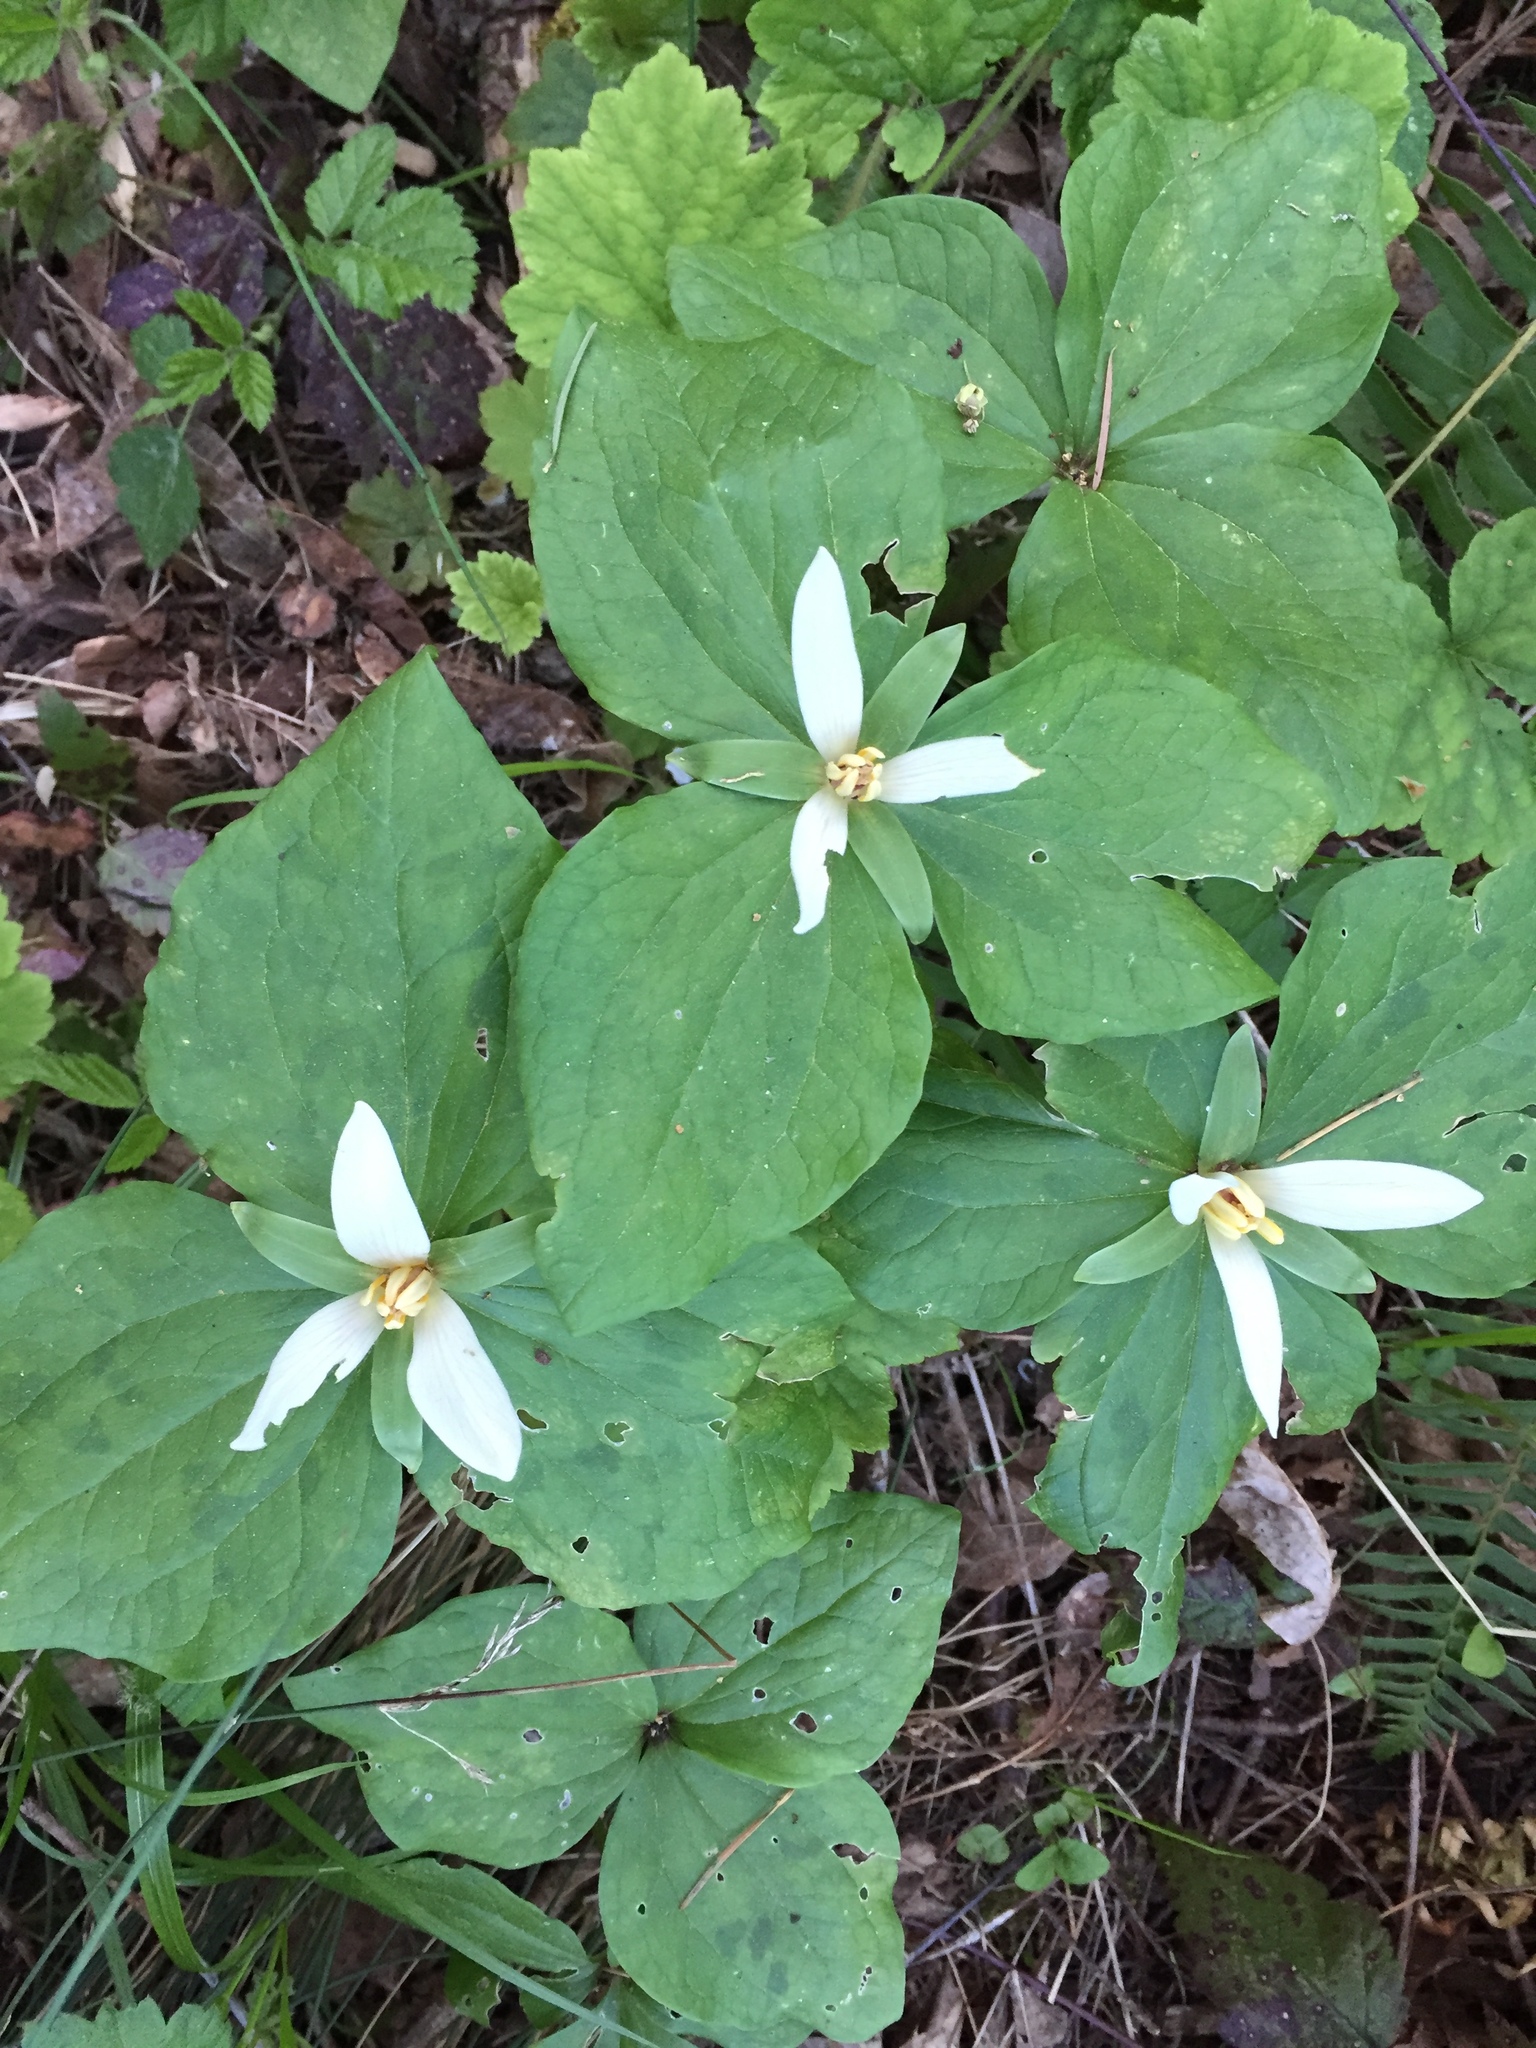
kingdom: Plantae
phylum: Tracheophyta
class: Liliopsida
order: Liliales
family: Melanthiaceae
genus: Trillium
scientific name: Trillium albidum
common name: Freeman's trillium
